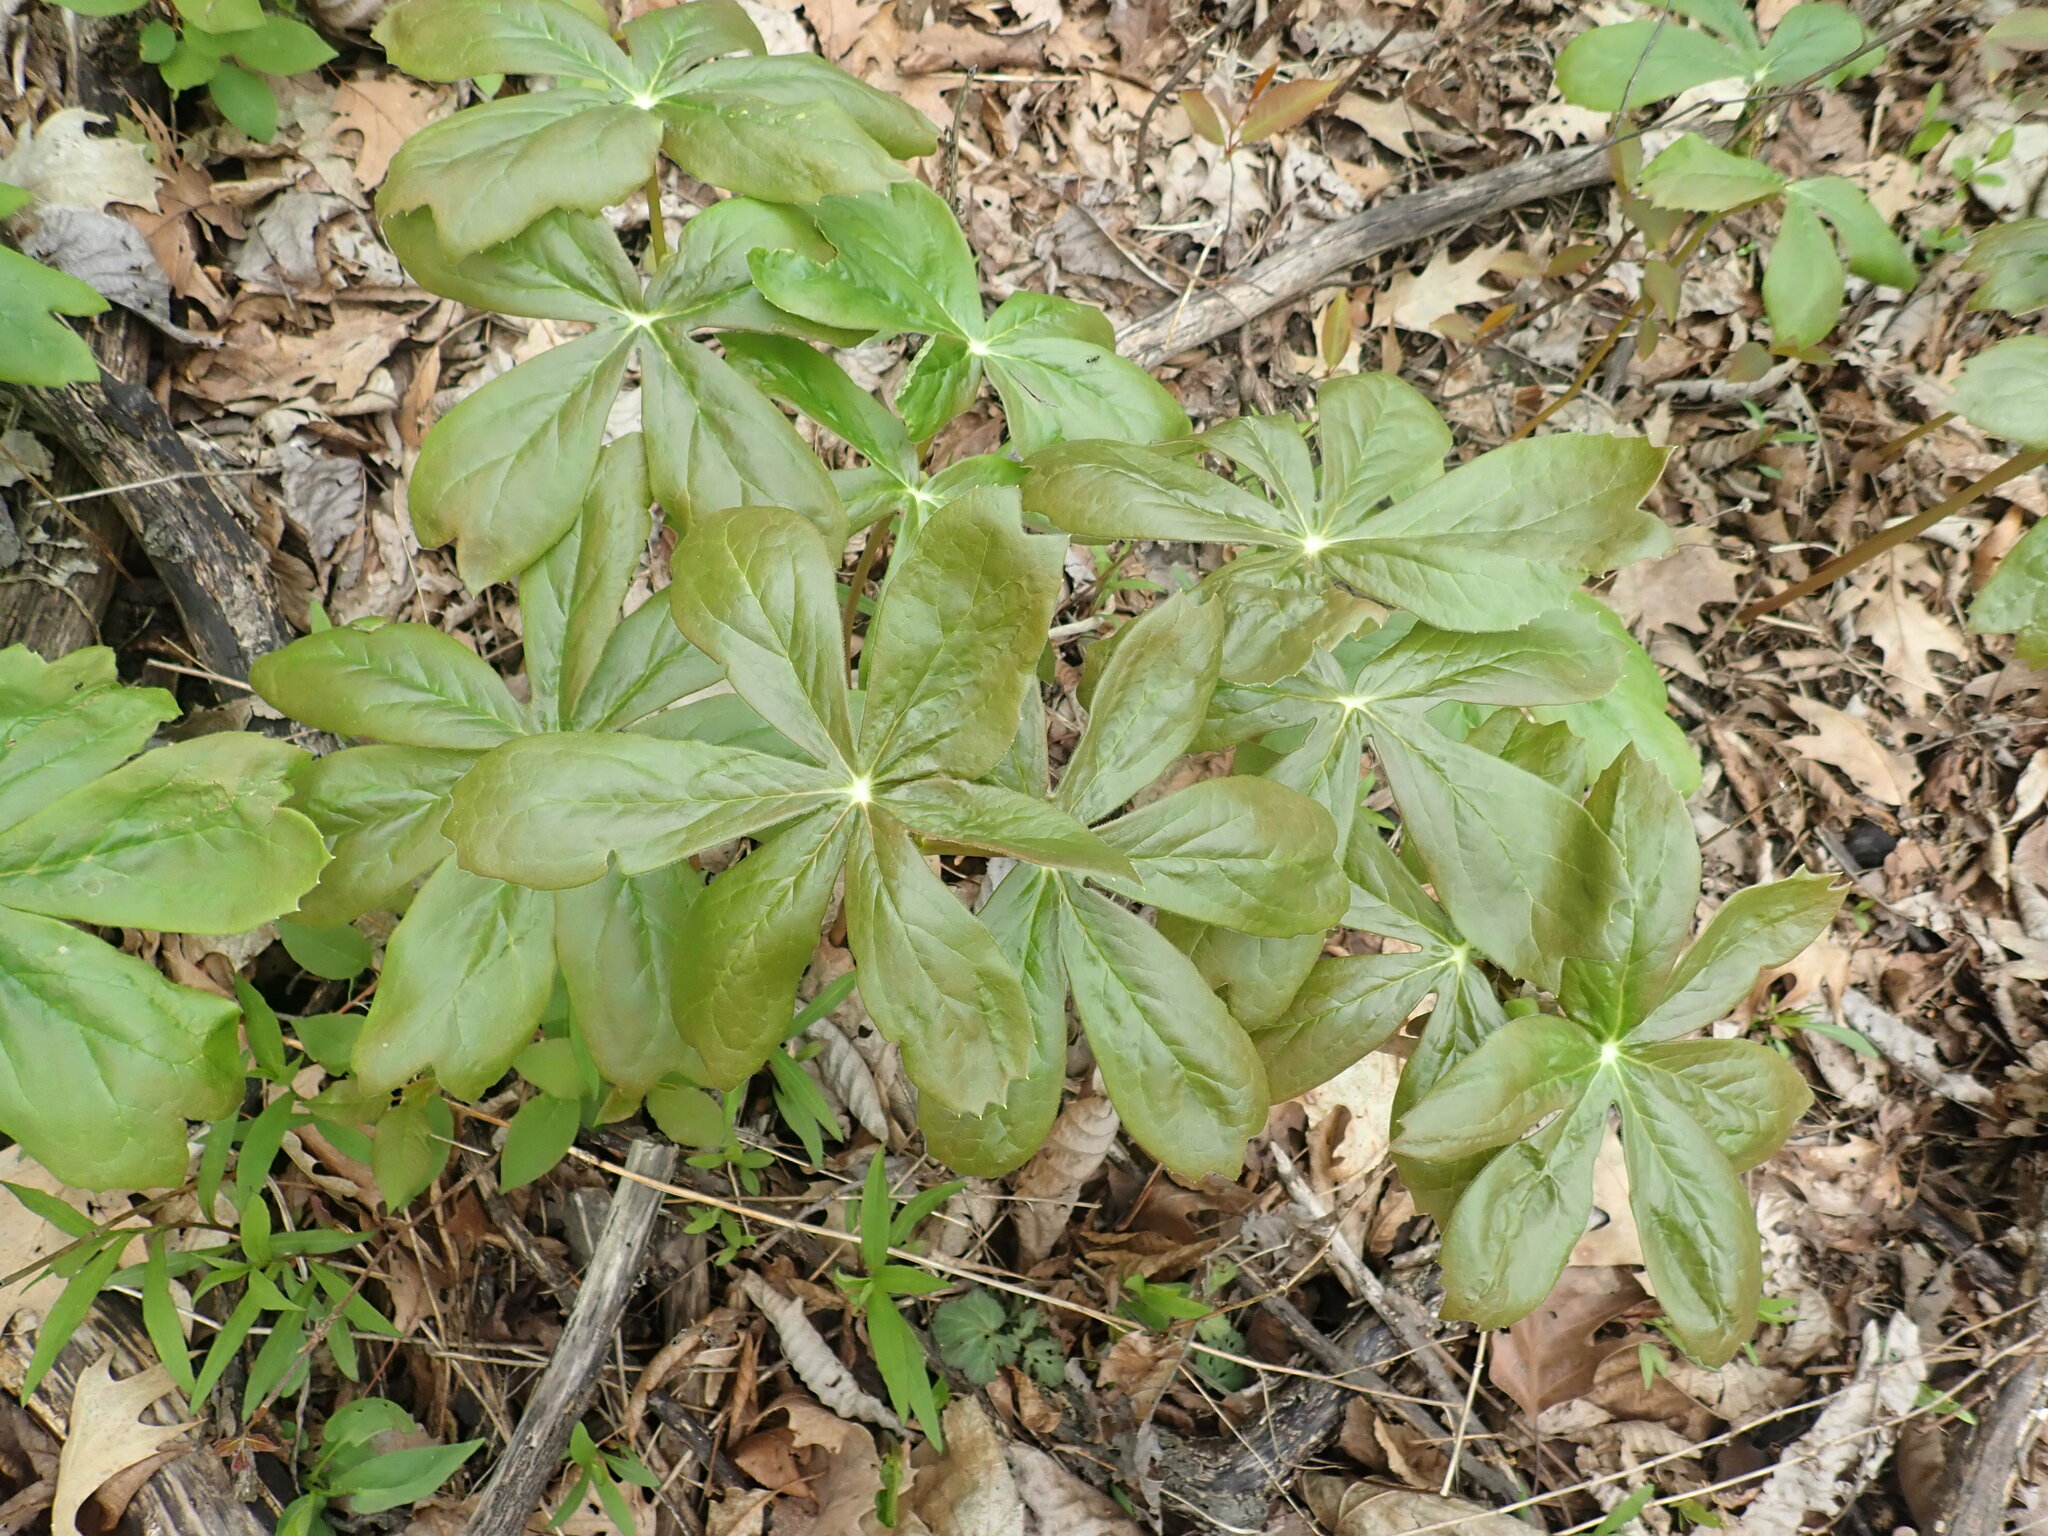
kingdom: Plantae
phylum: Tracheophyta
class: Magnoliopsida
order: Ranunculales
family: Berberidaceae
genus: Podophyllum
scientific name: Podophyllum peltatum
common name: Wild mandrake
